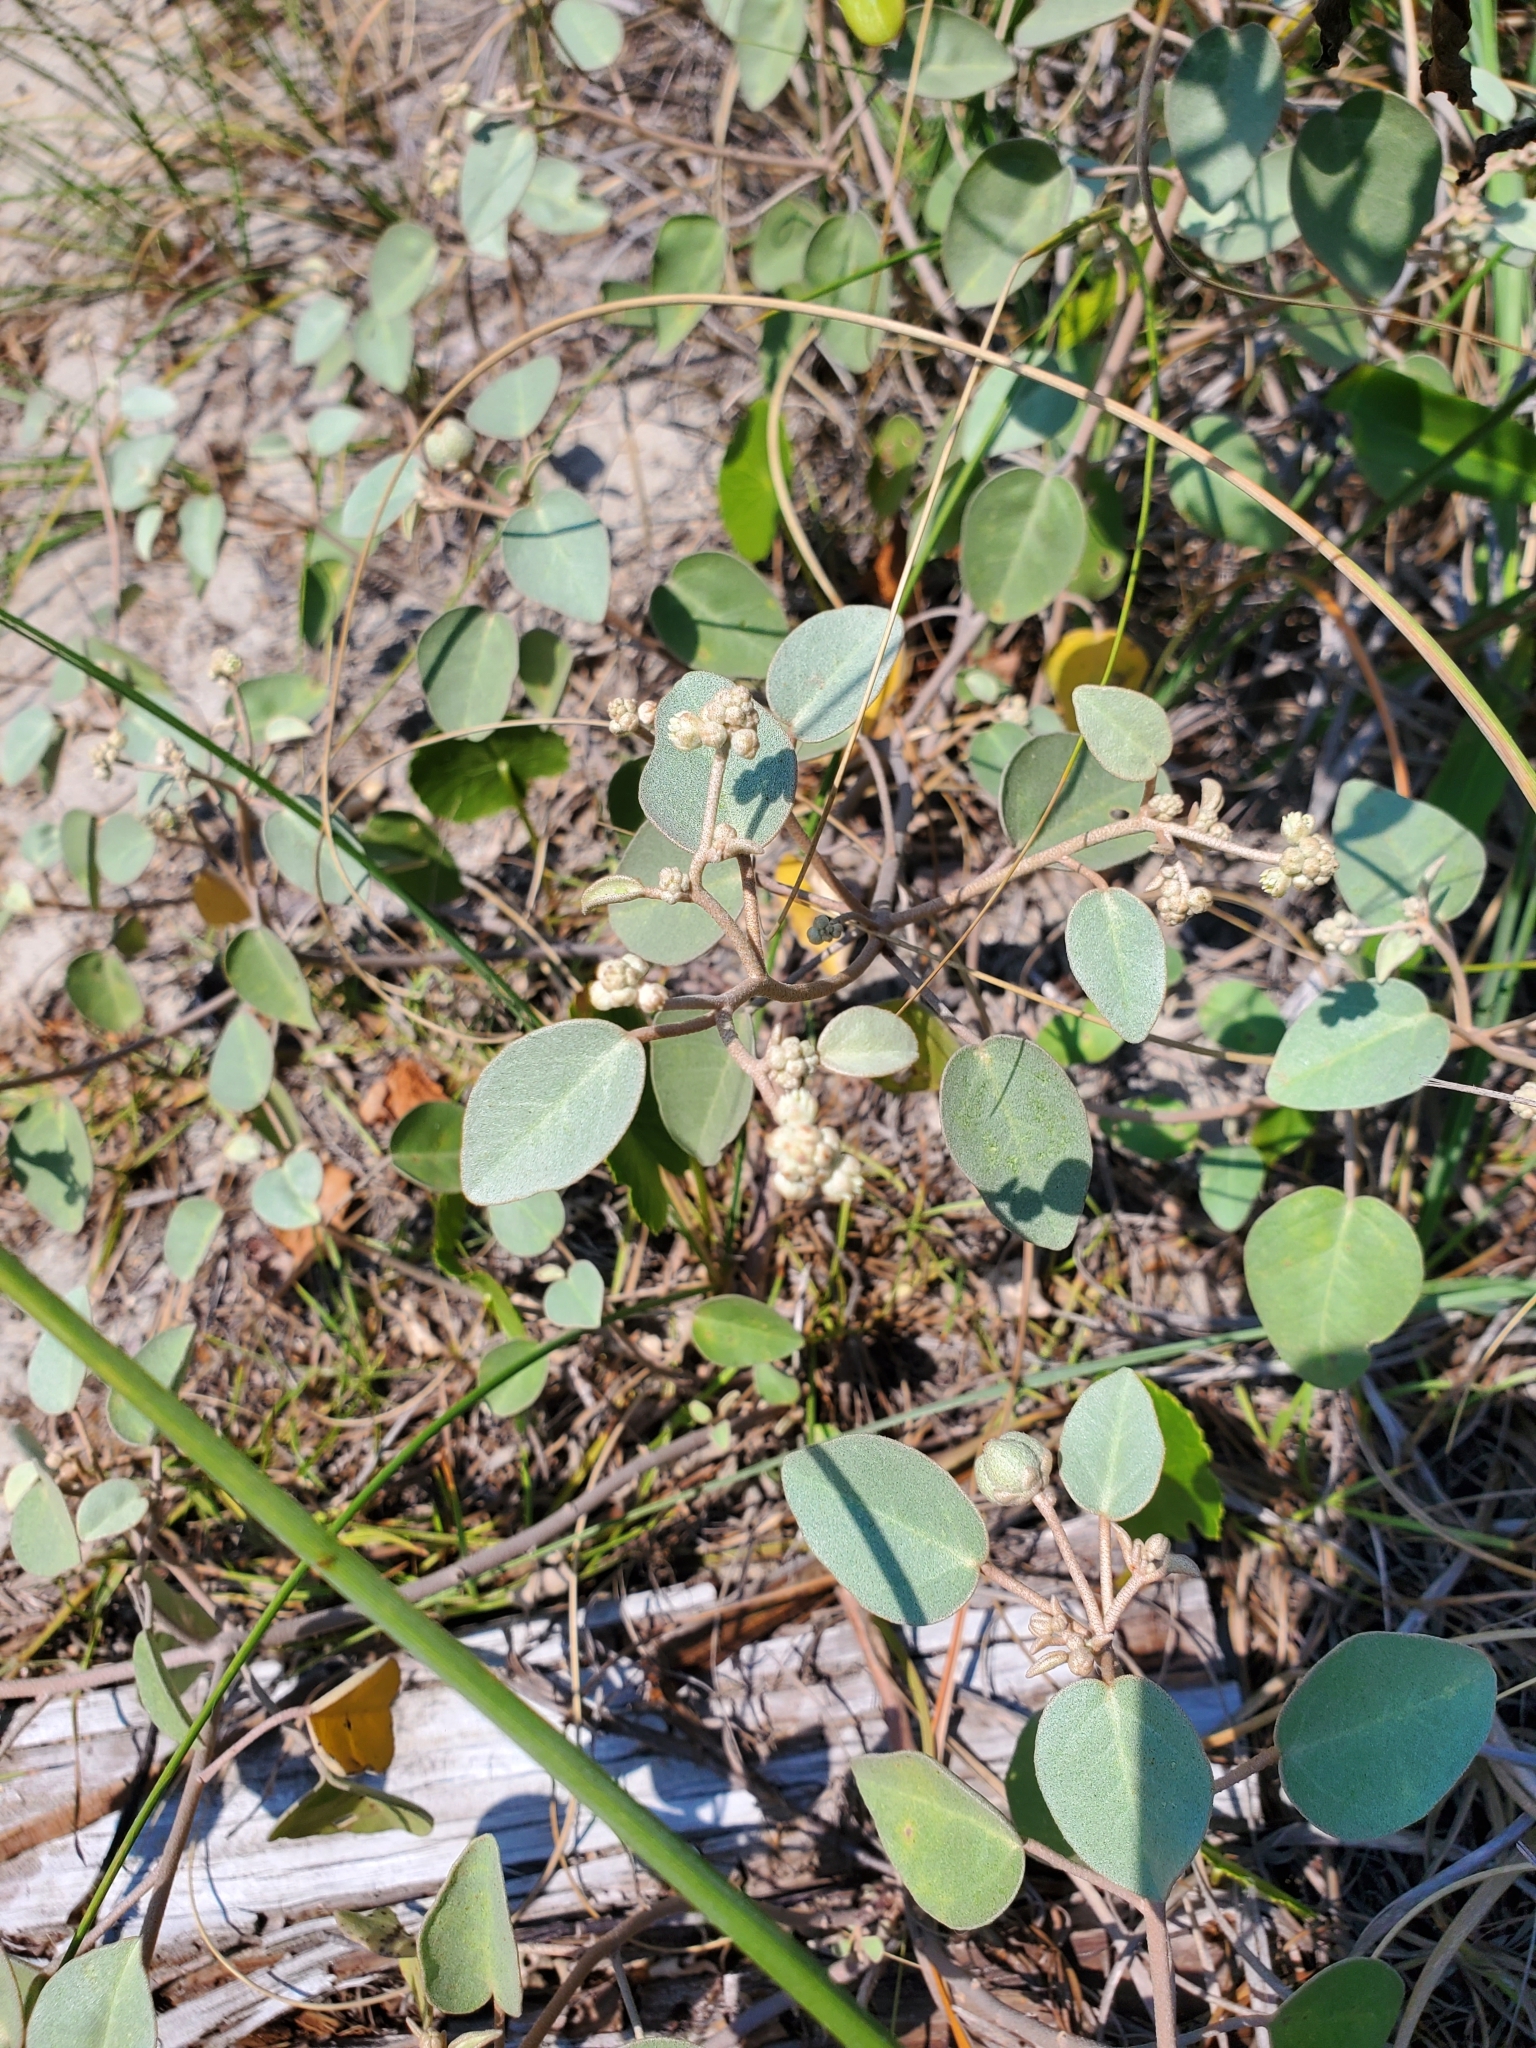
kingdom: Plantae
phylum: Tracheophyta
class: Magnoliopsida
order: Malpighiales
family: Euphorbiaceae
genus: Croton
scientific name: Croton punctatus
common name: Beach-tea
